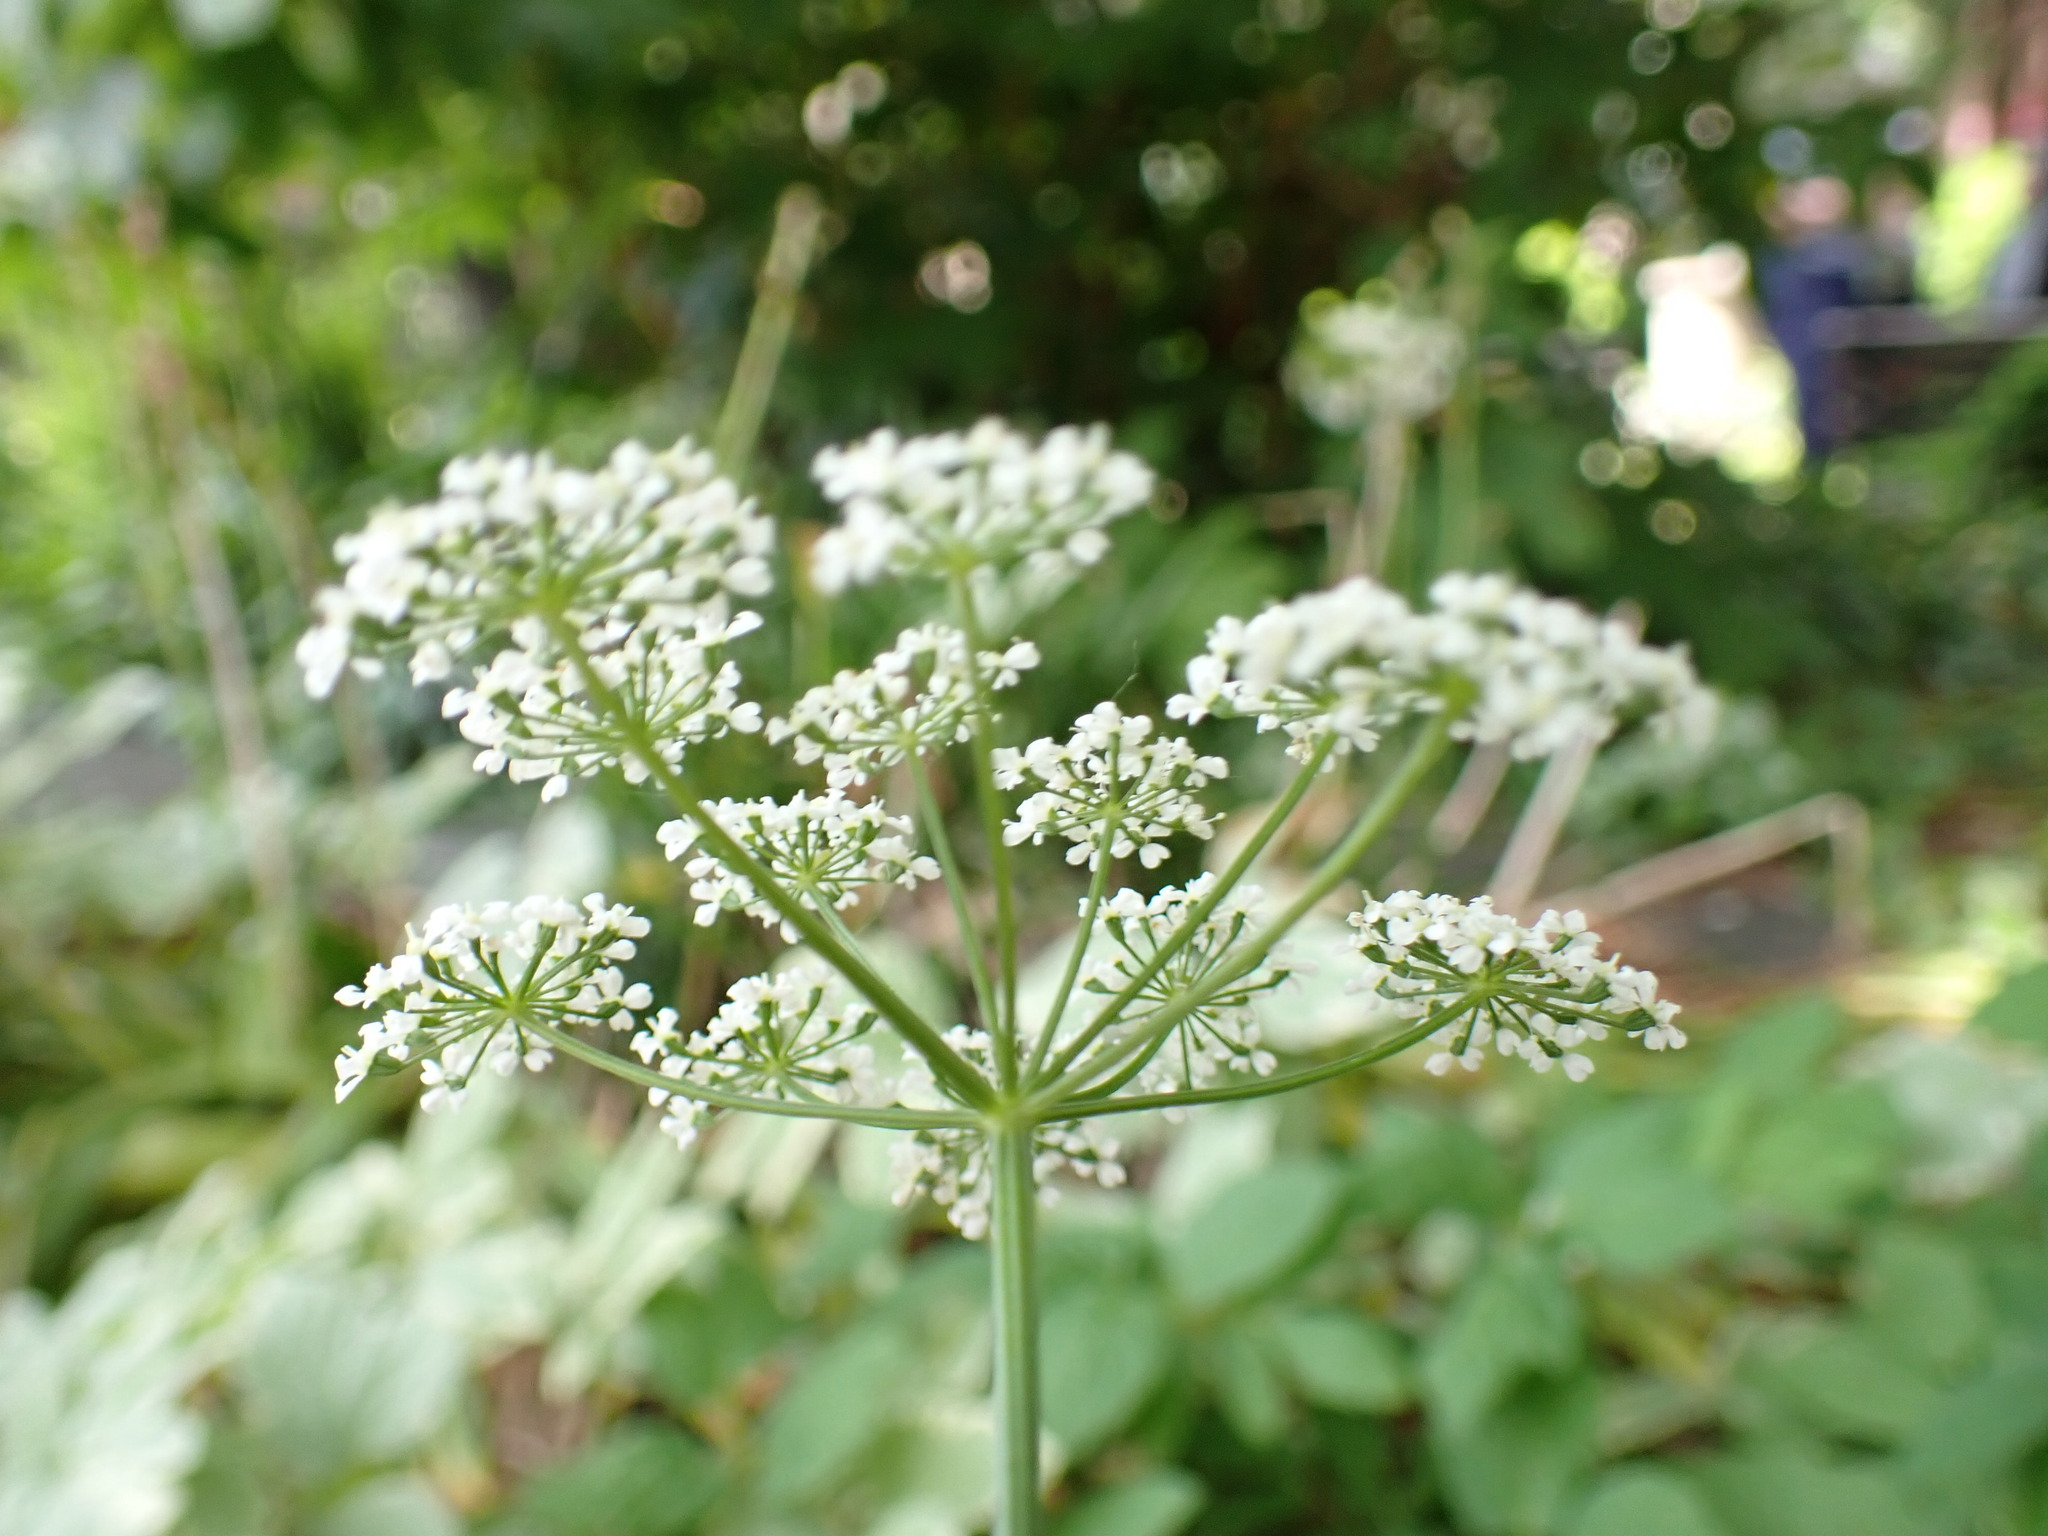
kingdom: Plantae
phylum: Tracheophyta
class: Magnoliopsida
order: Apiales
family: Apiaceae
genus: Aegopodium
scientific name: Aegopodium podagraria
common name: Ground-elder
